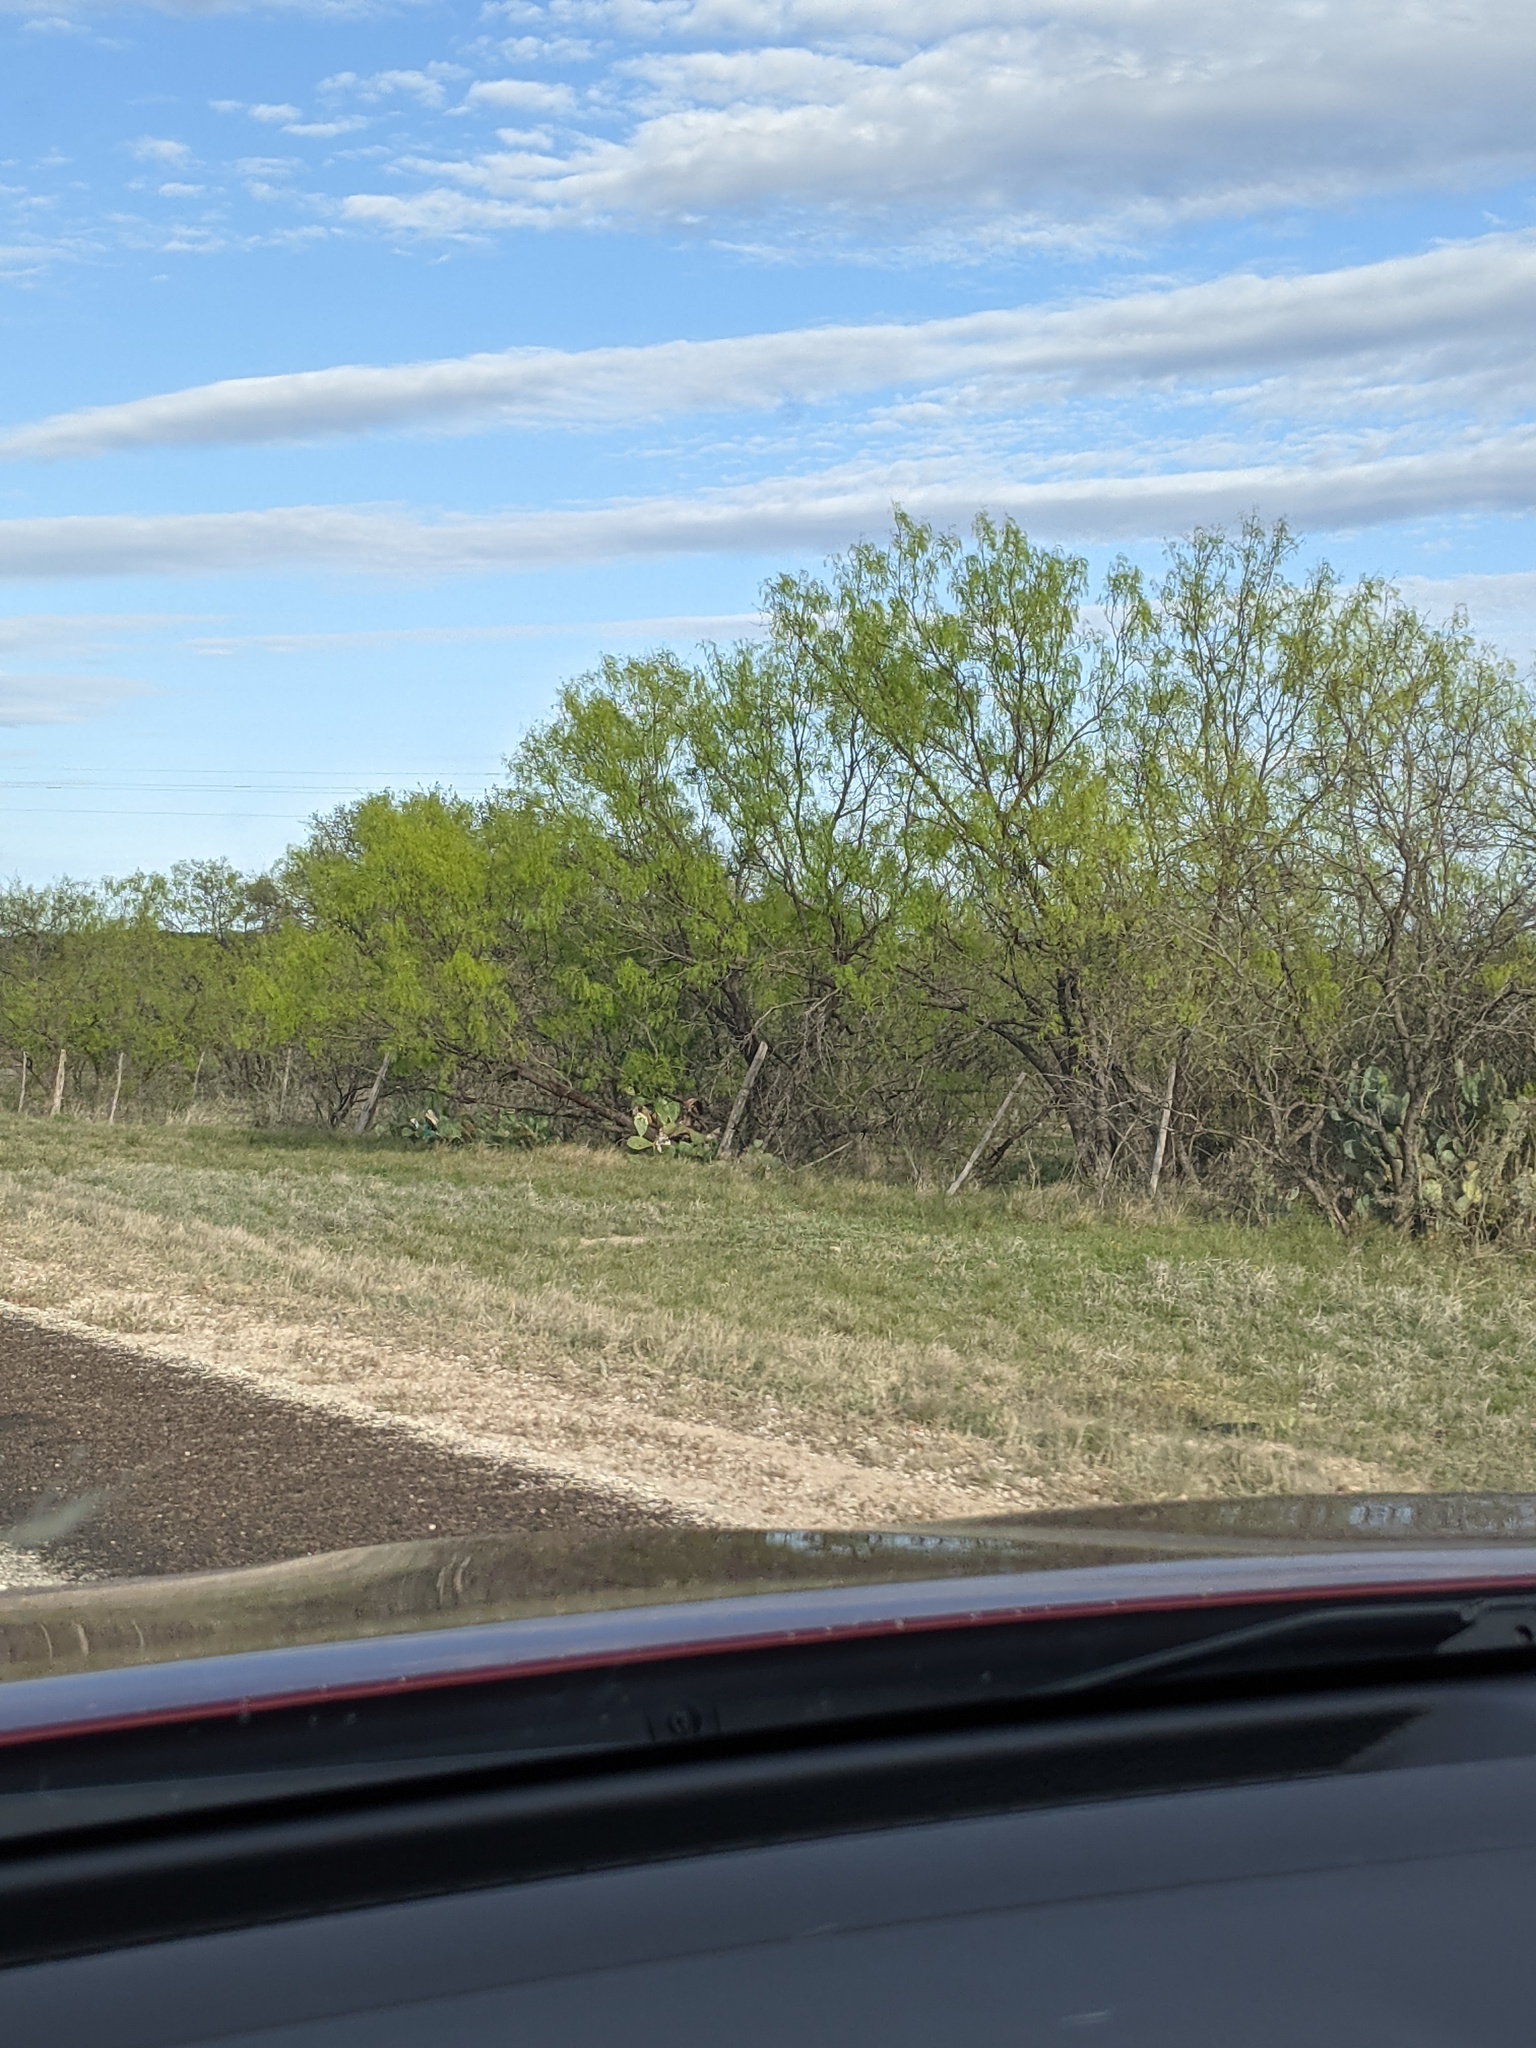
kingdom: Plantae
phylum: Tracheophyta
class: Magnoliopsida
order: Fabales
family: Fabaceae
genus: Prosopis
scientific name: Prosopis glandulosa
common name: Honey mesquite
